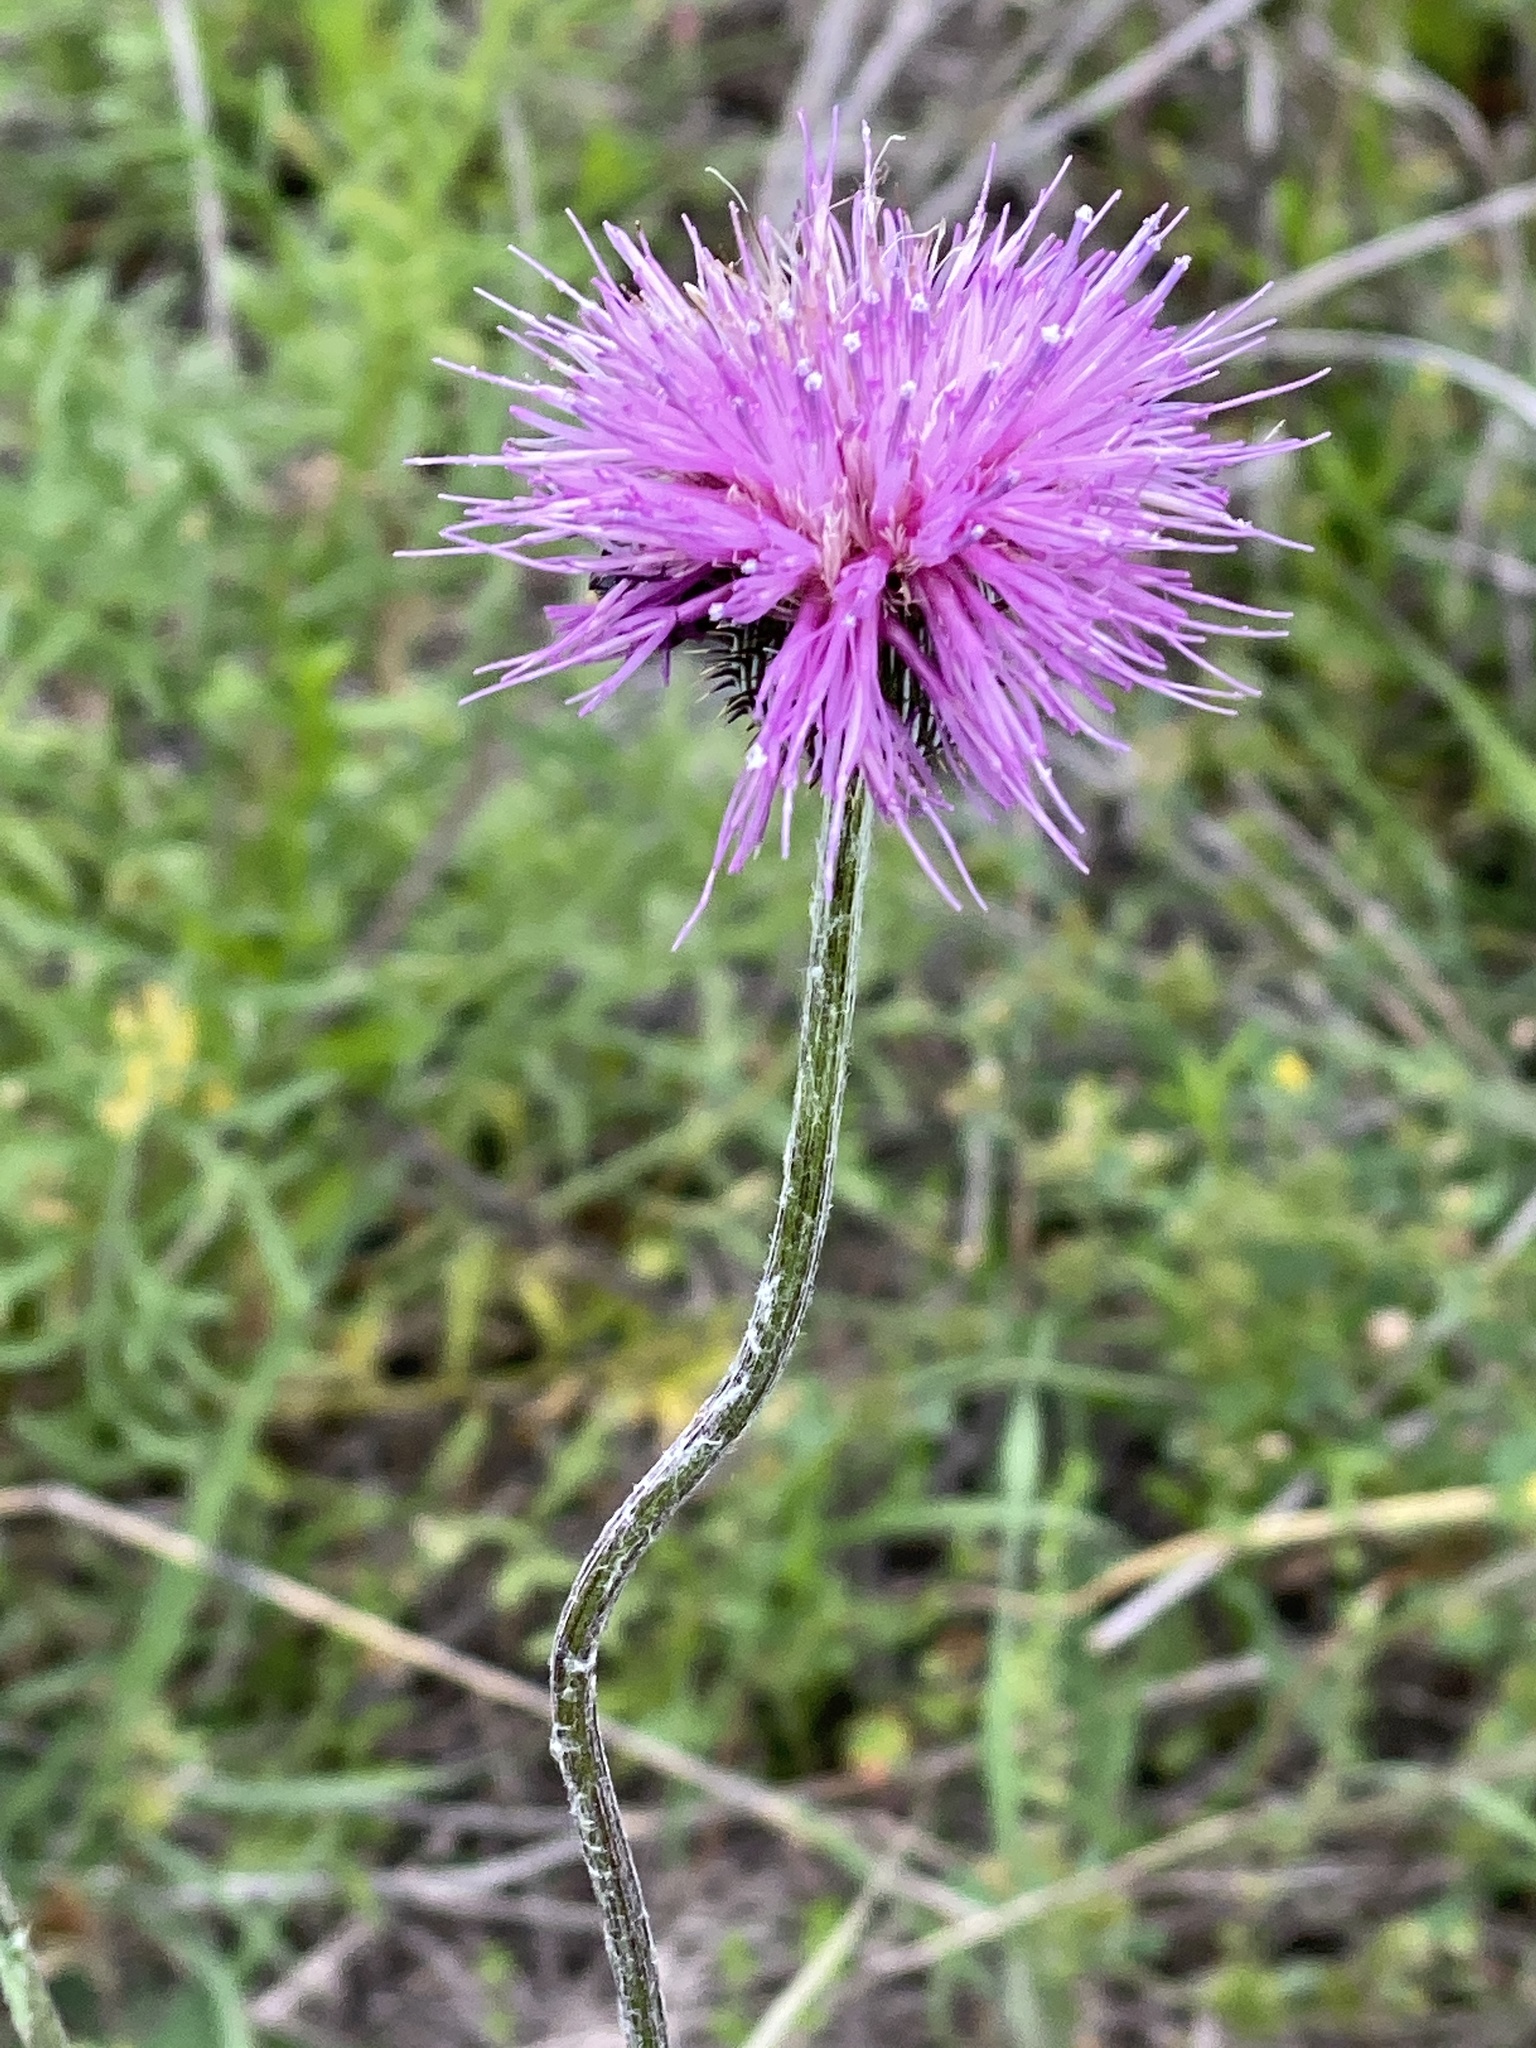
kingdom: Plantae
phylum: Tracheophyta
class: Magnoliopsida
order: Asterales
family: Asteraceae
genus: Cirsium
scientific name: Cirsium texanum
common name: Texas purple thistle
